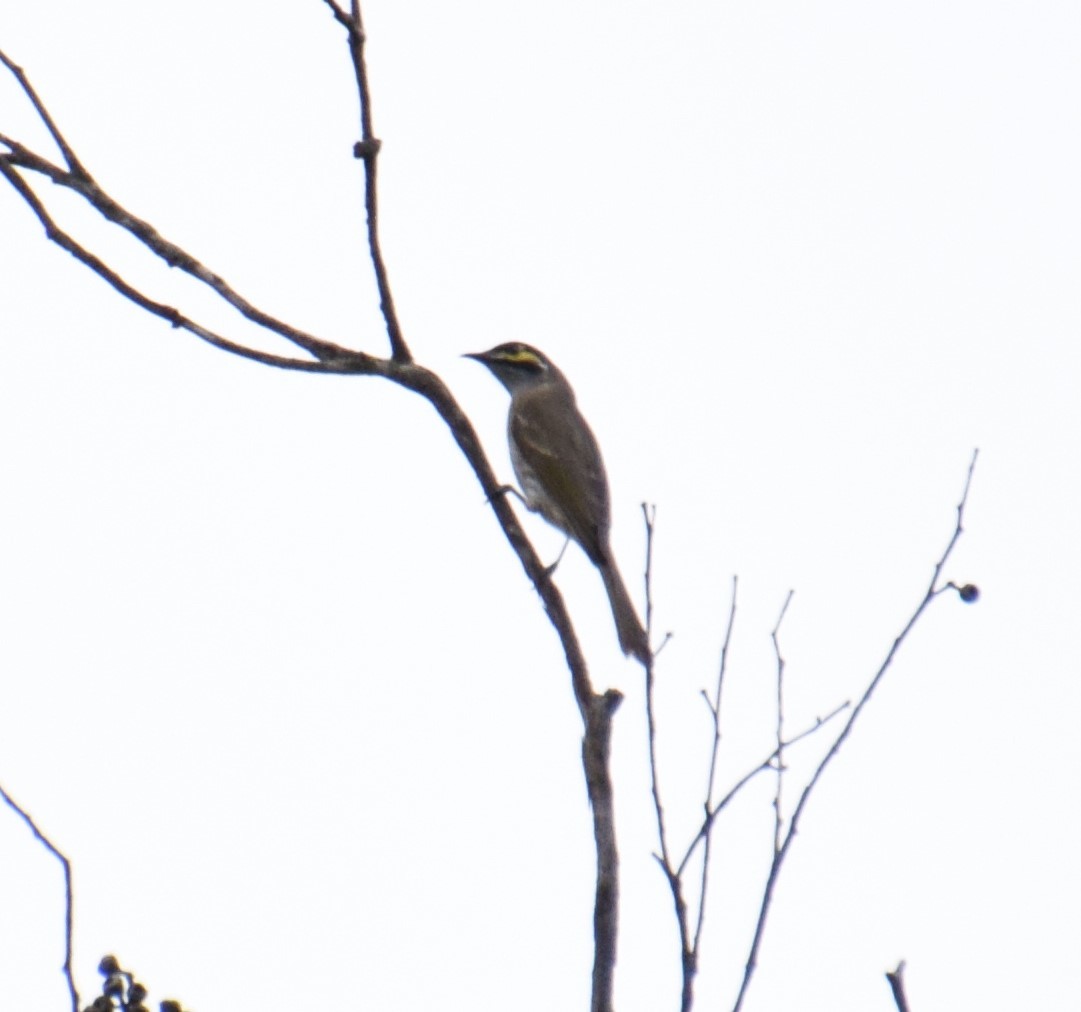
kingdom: Animalia
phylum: Chordata
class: Aves
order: Passeriformes
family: Meliphagidae
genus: Caligavis
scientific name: Caligavis chrysops
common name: Yellow-faced honeyeater
